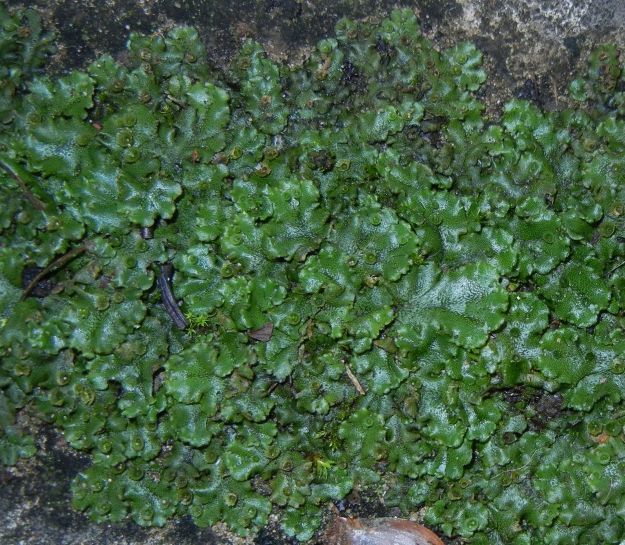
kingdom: Plantae
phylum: Marchantiophyta
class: Marchantiopsida
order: Marchantiales
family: Marchantiaceae
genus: Marchantia
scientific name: Marchantia polymorpha
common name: Common liverwort
